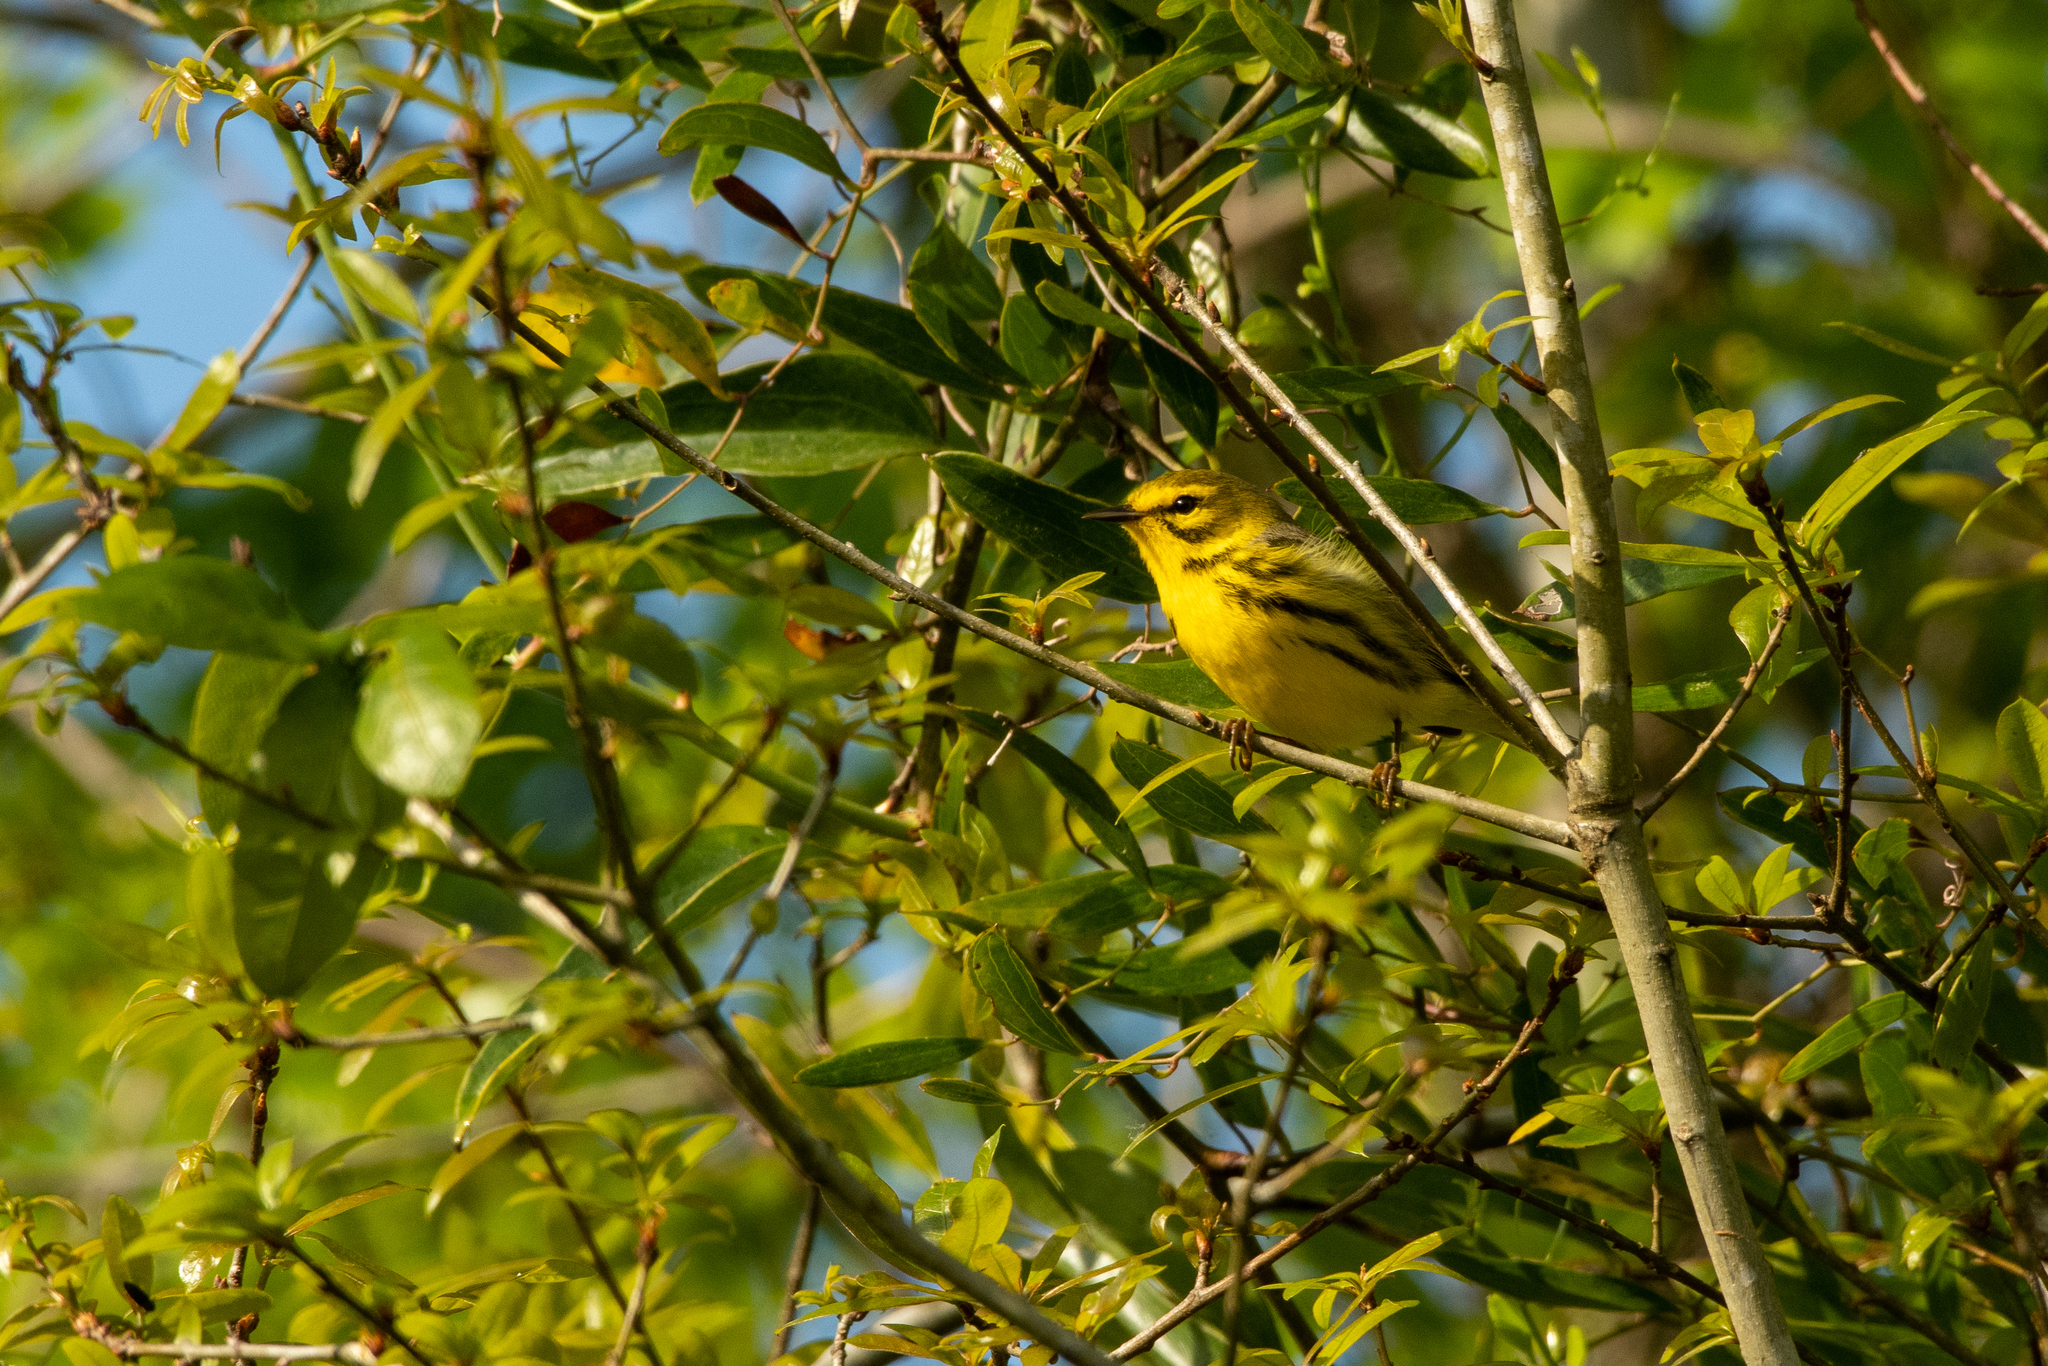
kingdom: Animalia
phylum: Chordata
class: Aves
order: Passeriformes
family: Parulidae
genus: Setophaga
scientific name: Setophaga discolor
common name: Prairie warbler
